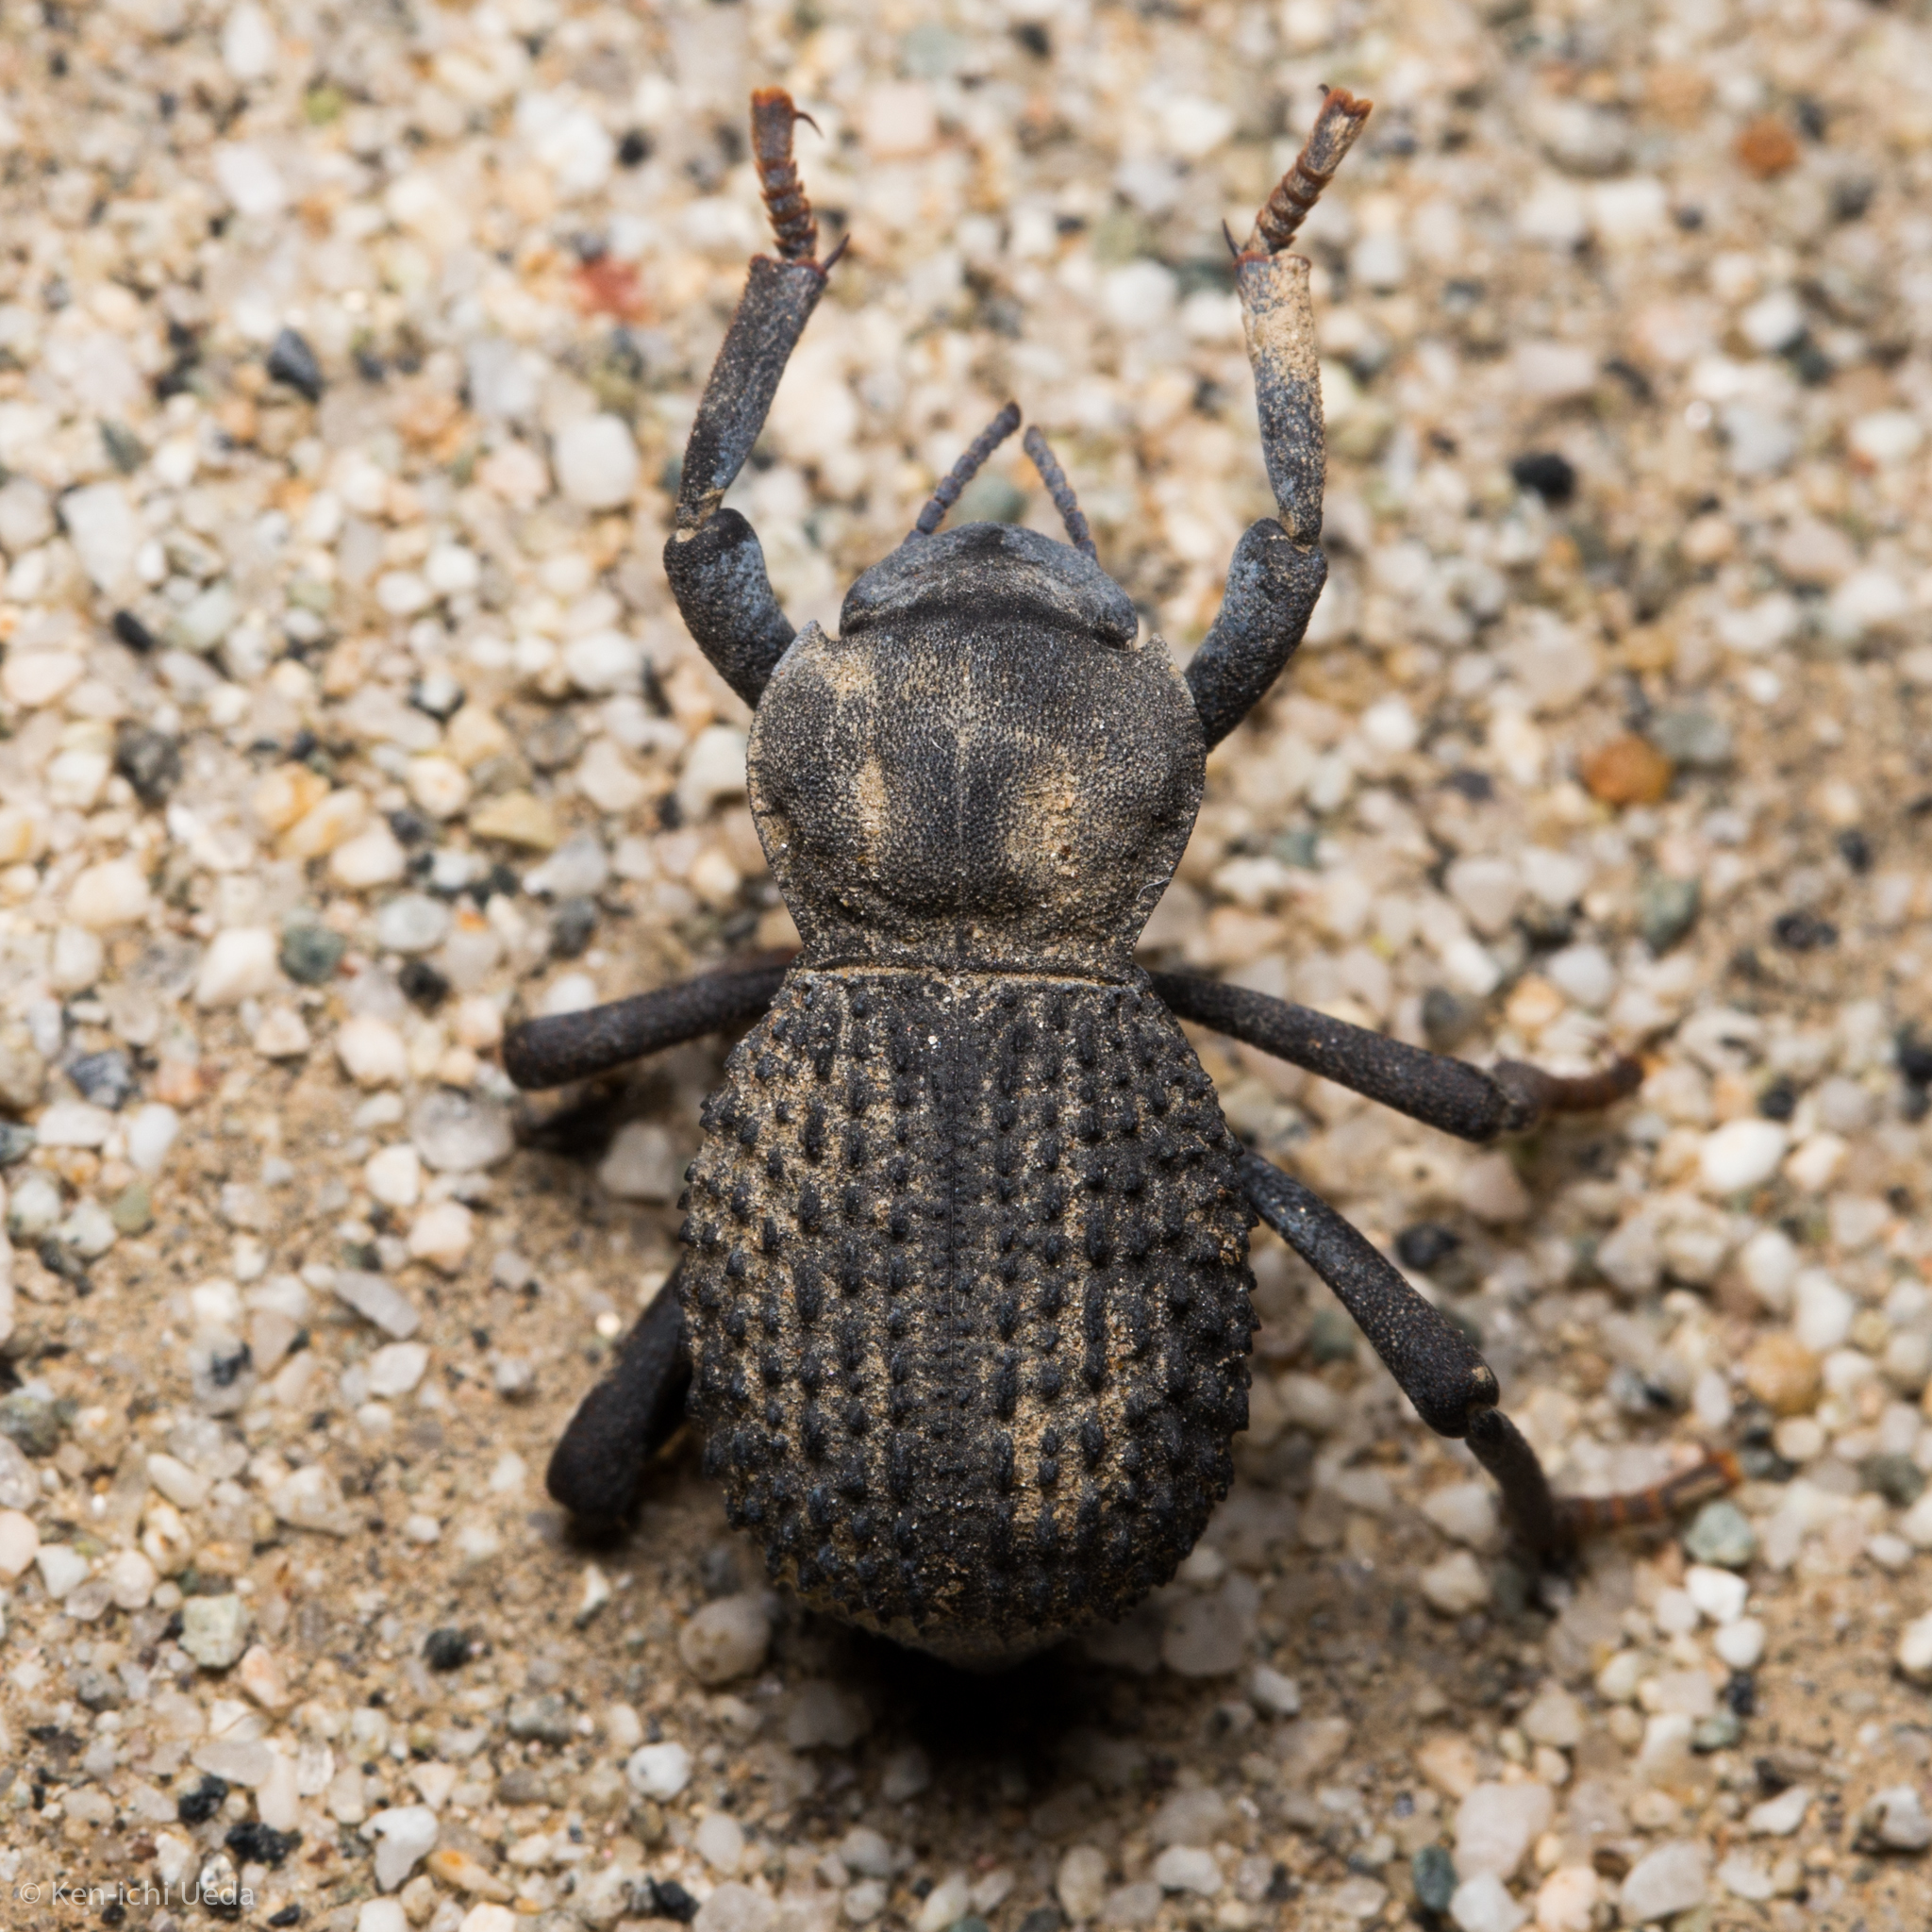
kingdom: Animalia
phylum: Arthropoda
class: Insecta
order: Coleoptera
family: Tenebrionidae
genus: Asbolus
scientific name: Asbolus verrucosus
